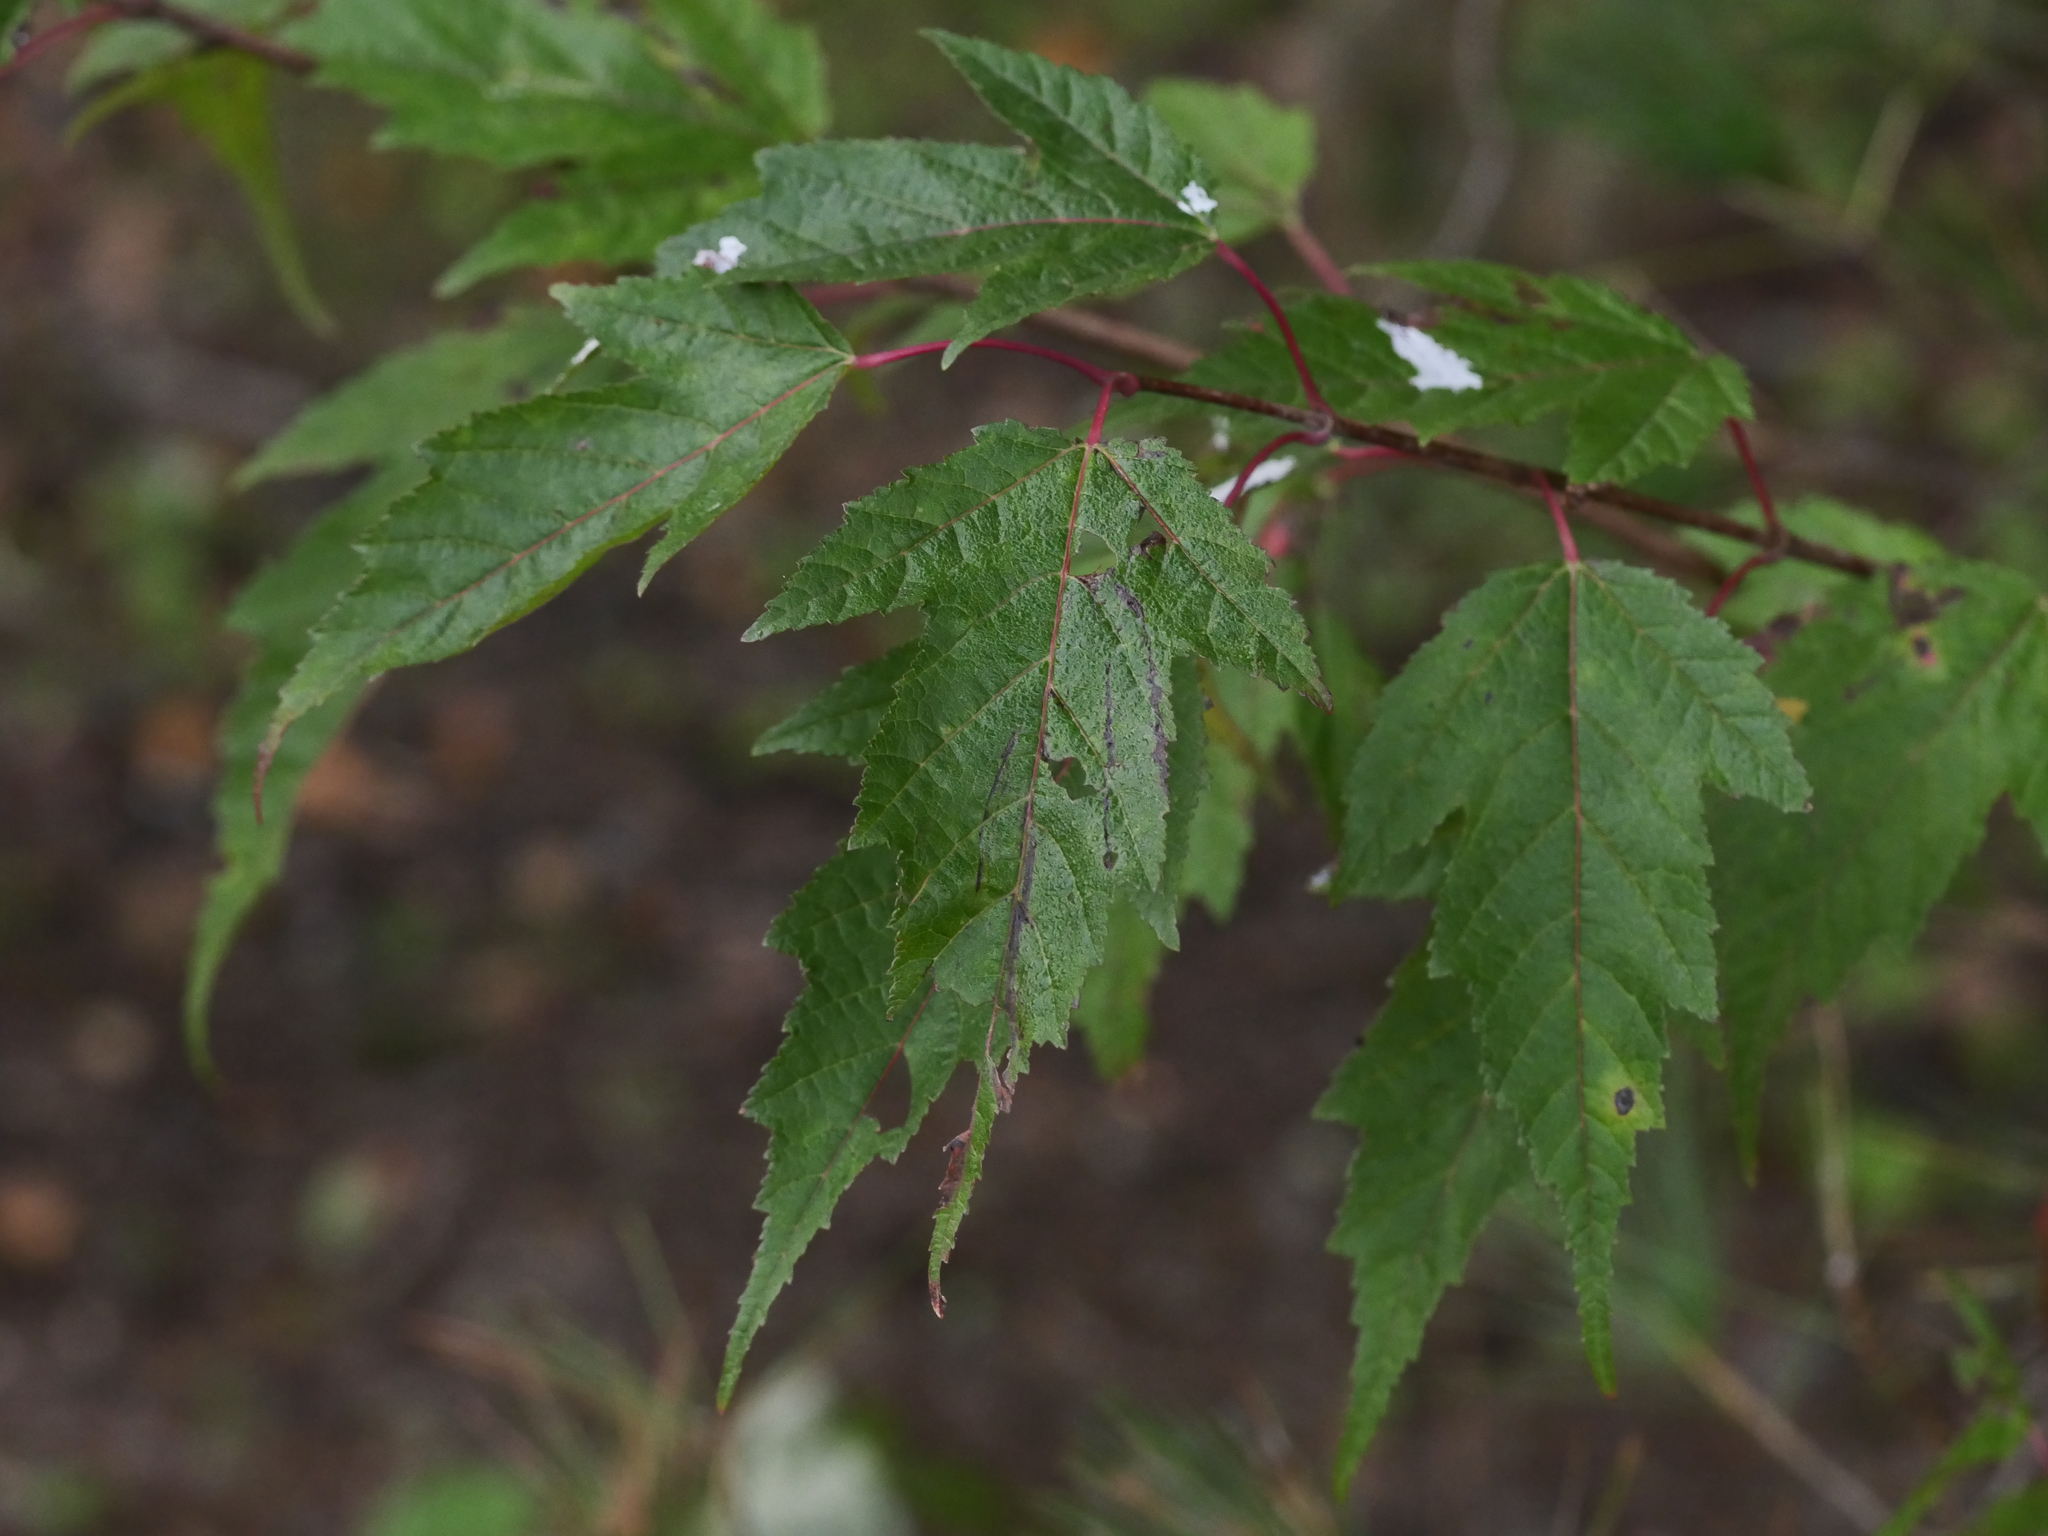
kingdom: Plantae
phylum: Tracheophyta
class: Magnoliopsida
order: Sapindales
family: Sapindaceae
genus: Acer
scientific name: Acer tataricum
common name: Tartar maple
